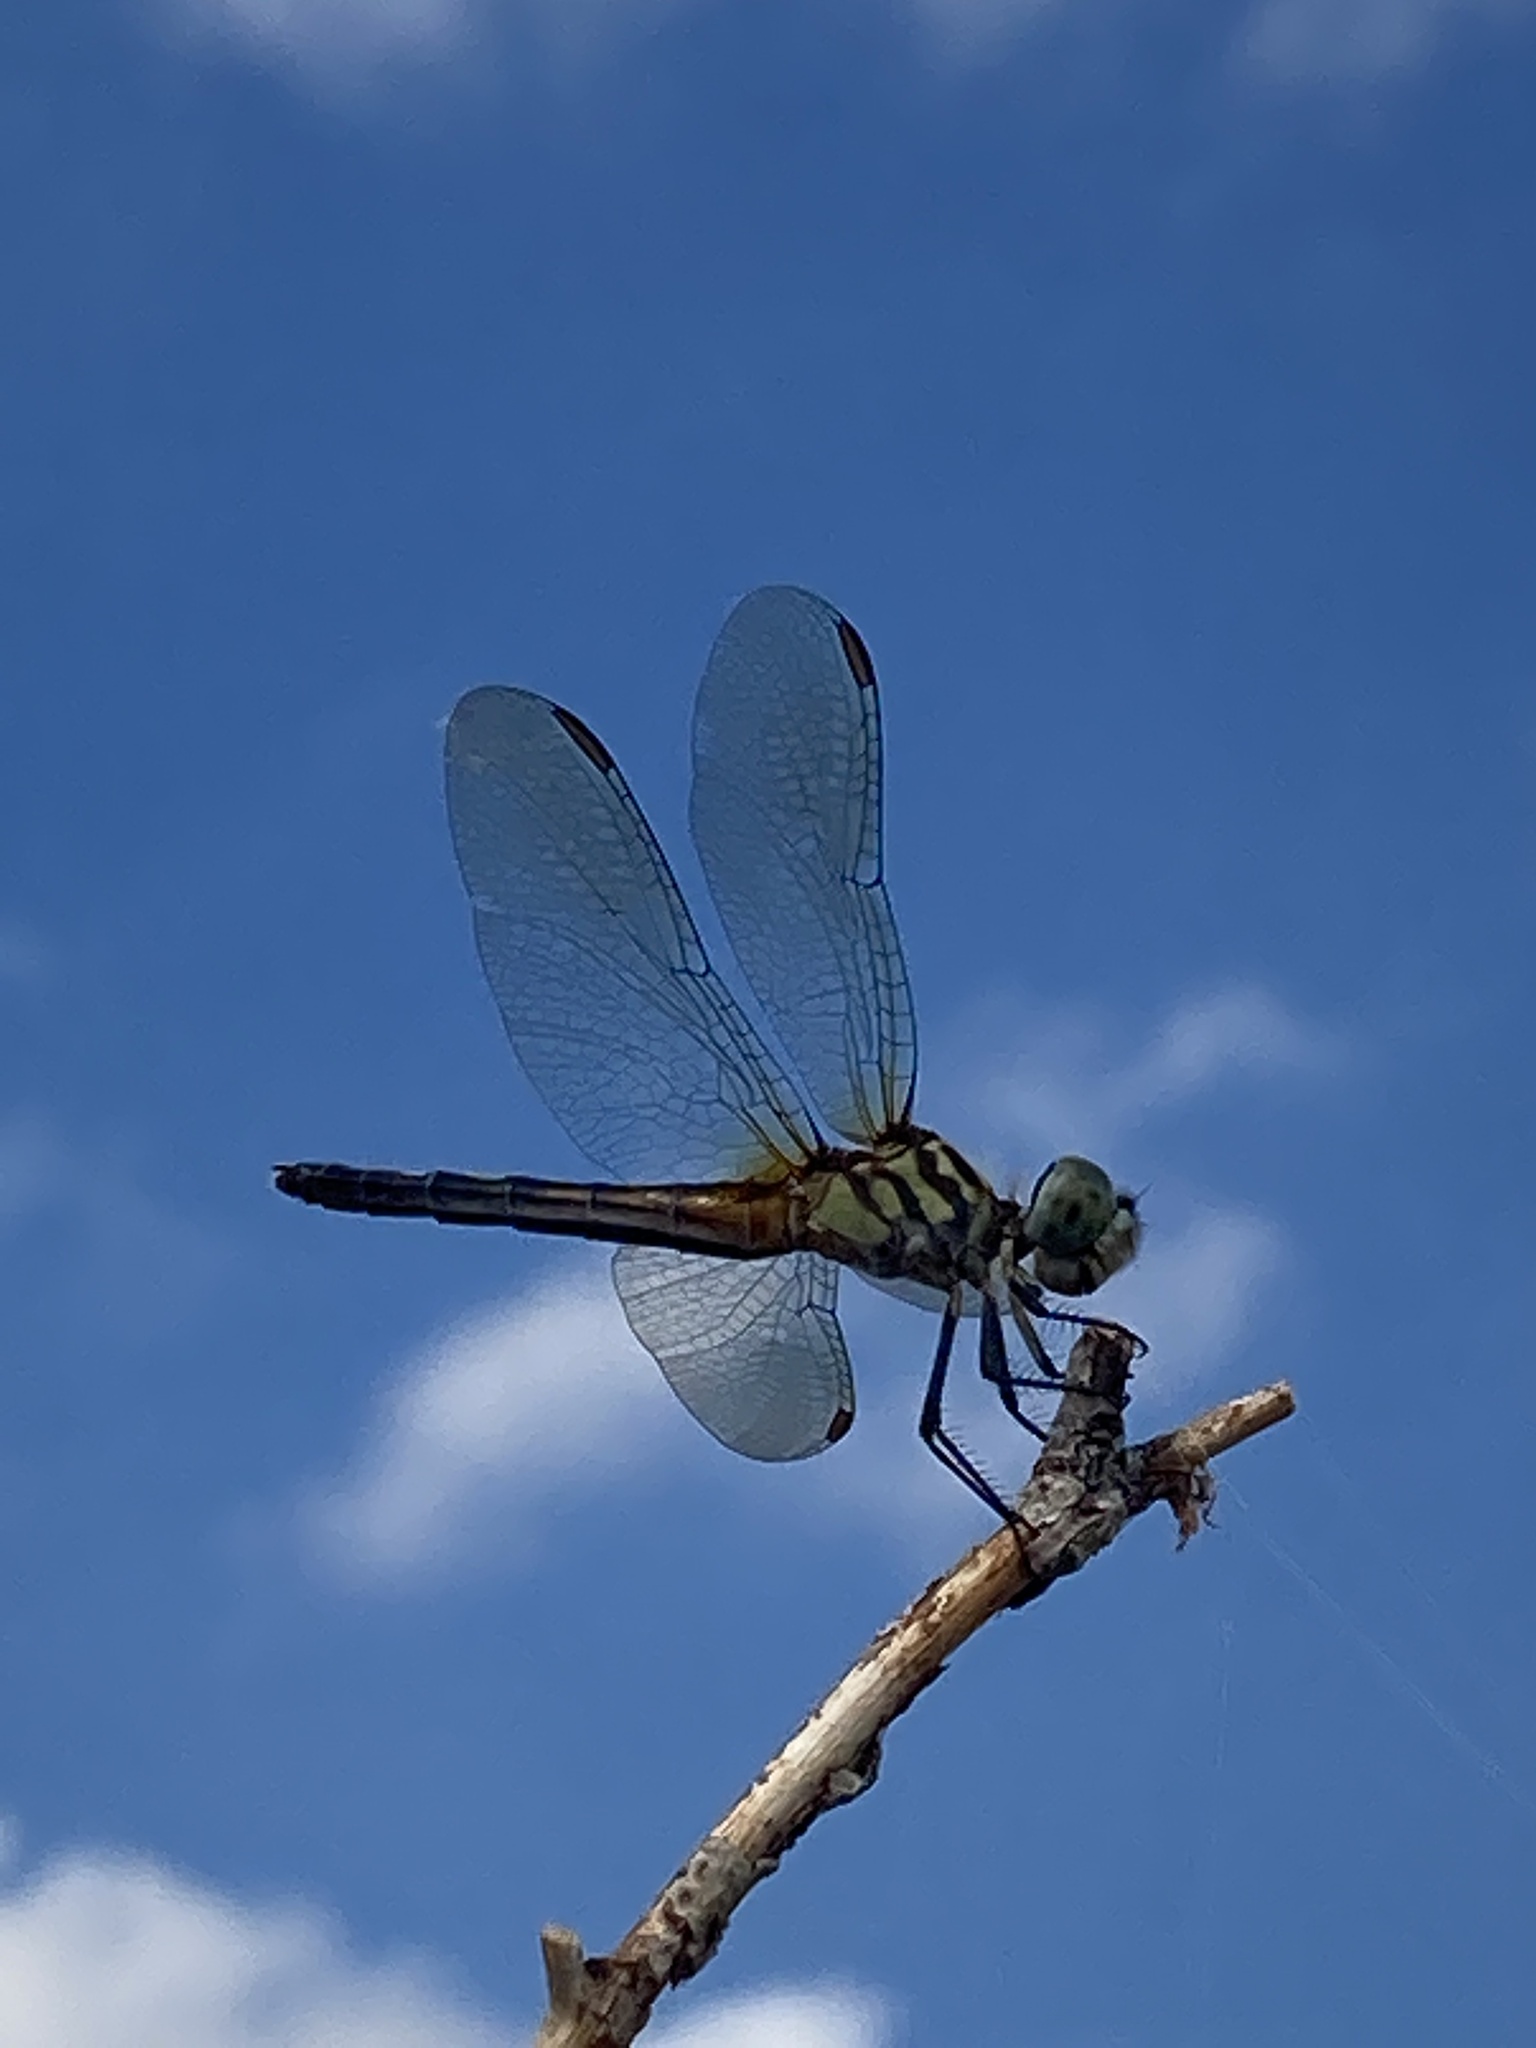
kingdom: Animalia
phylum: Arthropoda
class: Insecta
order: Odonata
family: Libellulidae
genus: Pachydiplax
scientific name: Pachydiplax longipennis
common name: Blue dasher
